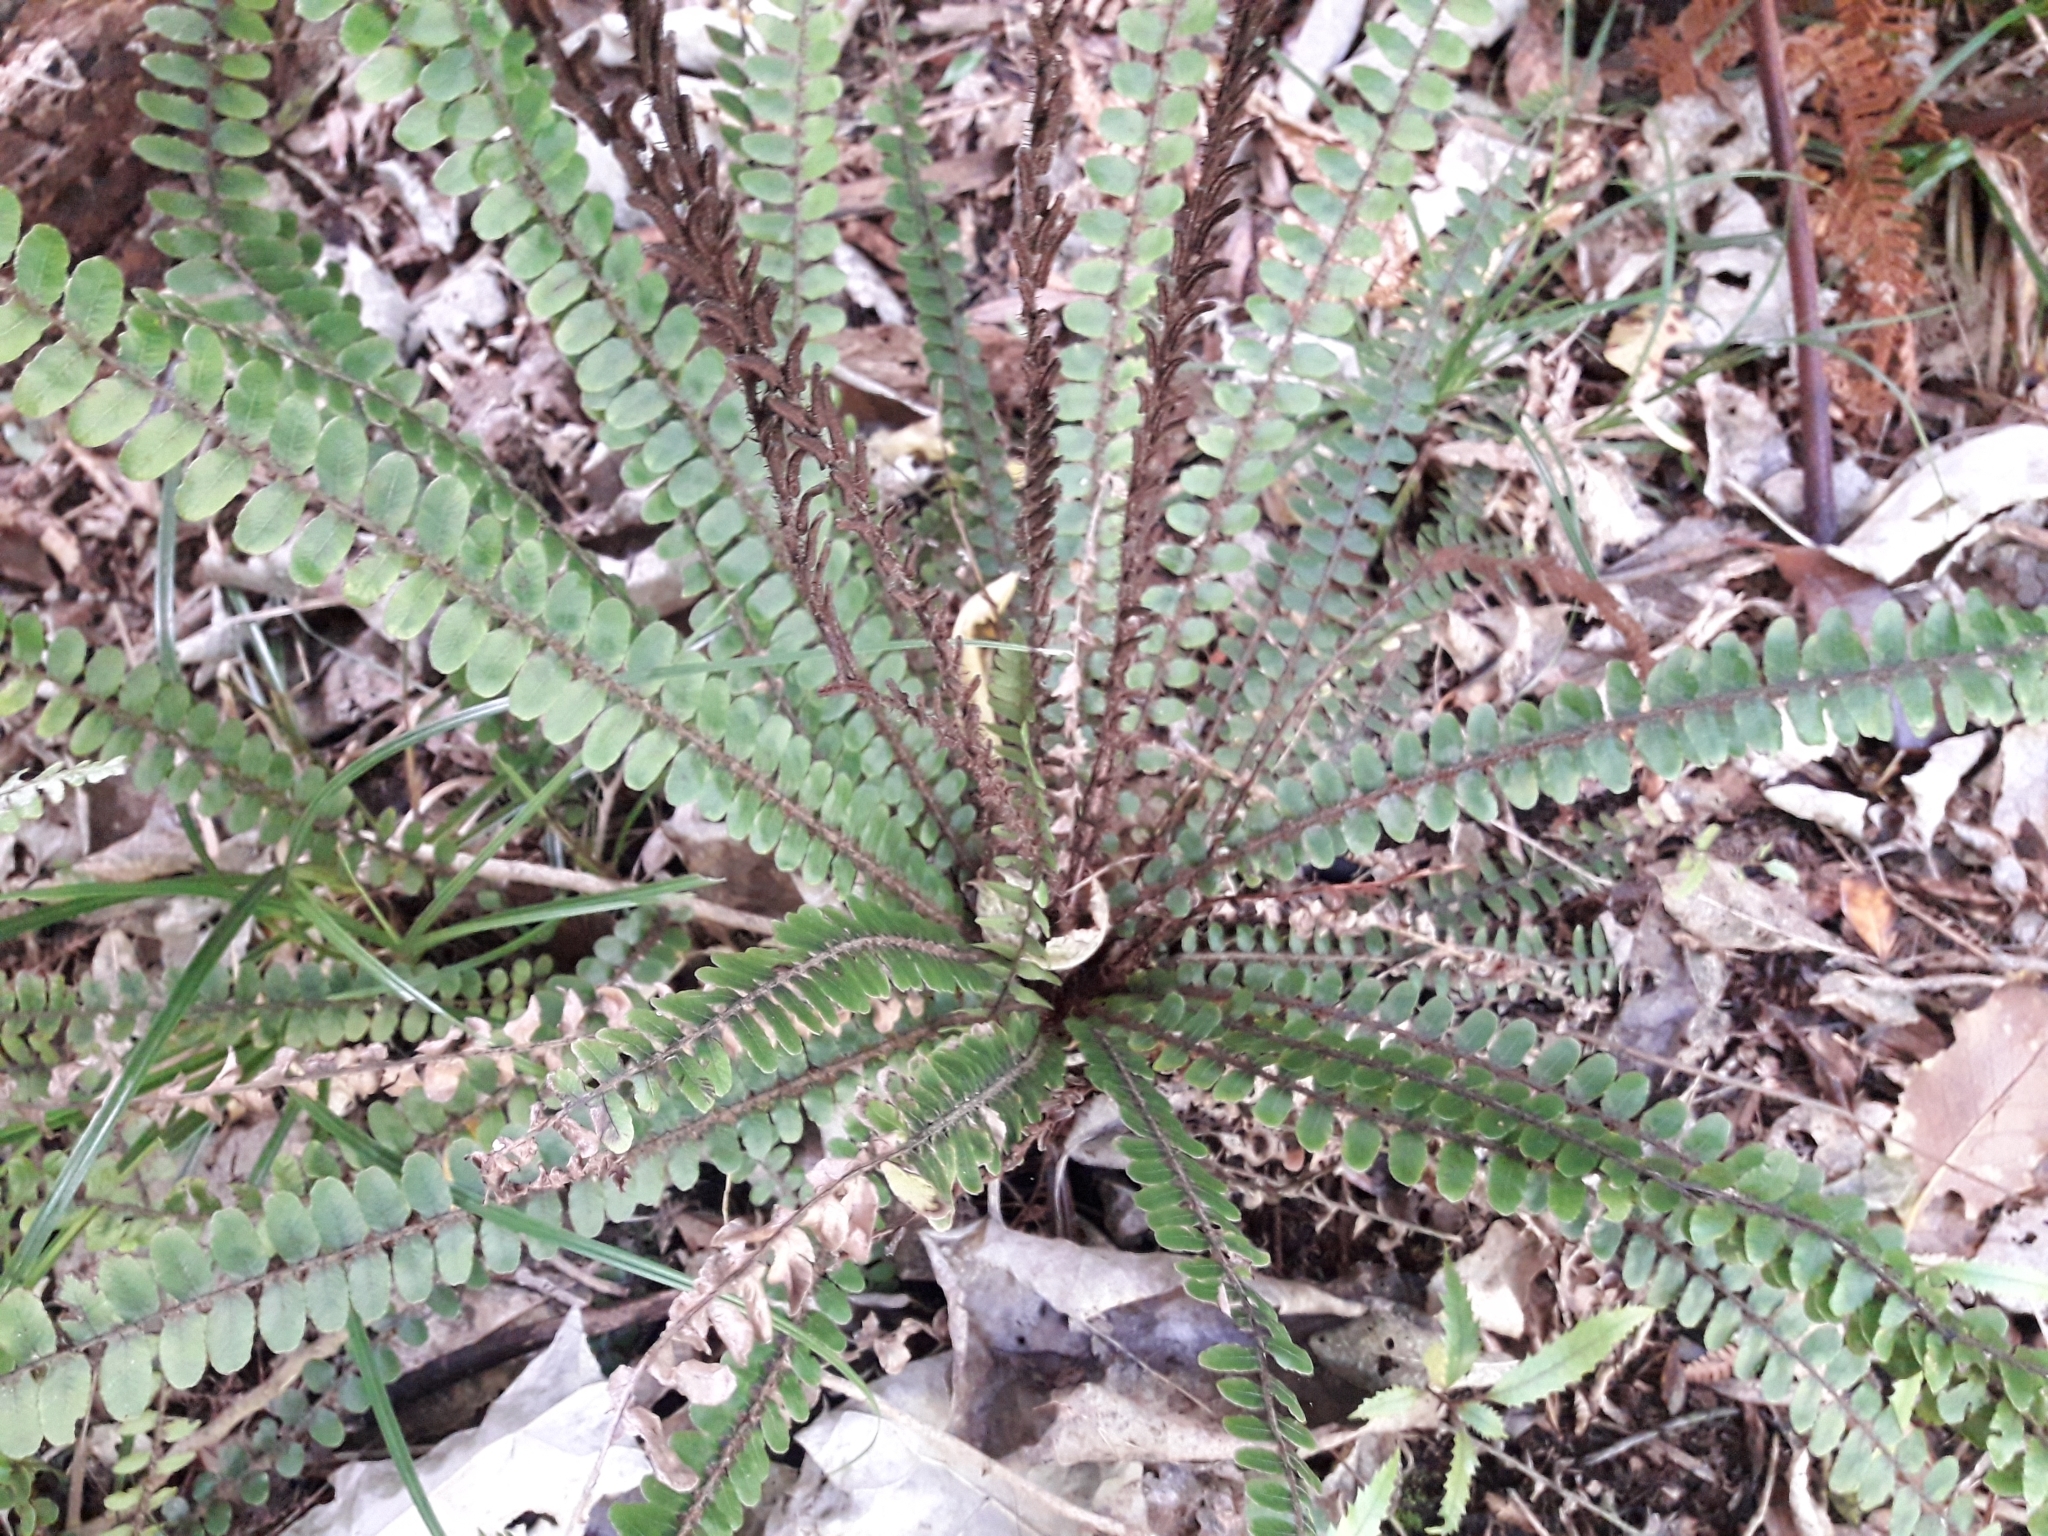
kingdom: Plantae
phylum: Tracheophyta
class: Polypodiopsida
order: Polypodiales
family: Blechnaceae
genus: Cranfillia
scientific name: Cranfillia fluviatilis
